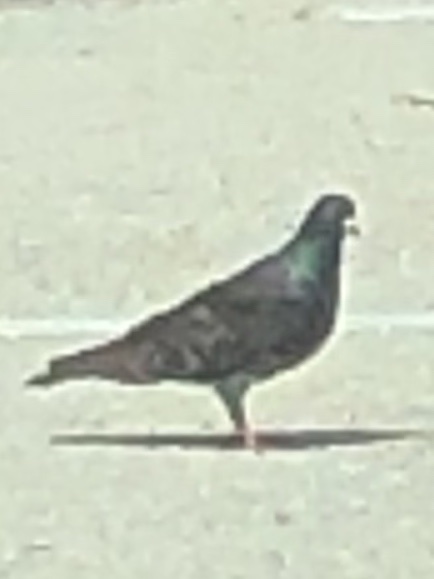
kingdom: Animalia
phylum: Chordata
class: Aves
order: Columbiformes
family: Columbidae
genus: Columba
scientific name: Columba livia
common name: Rock pigeon
